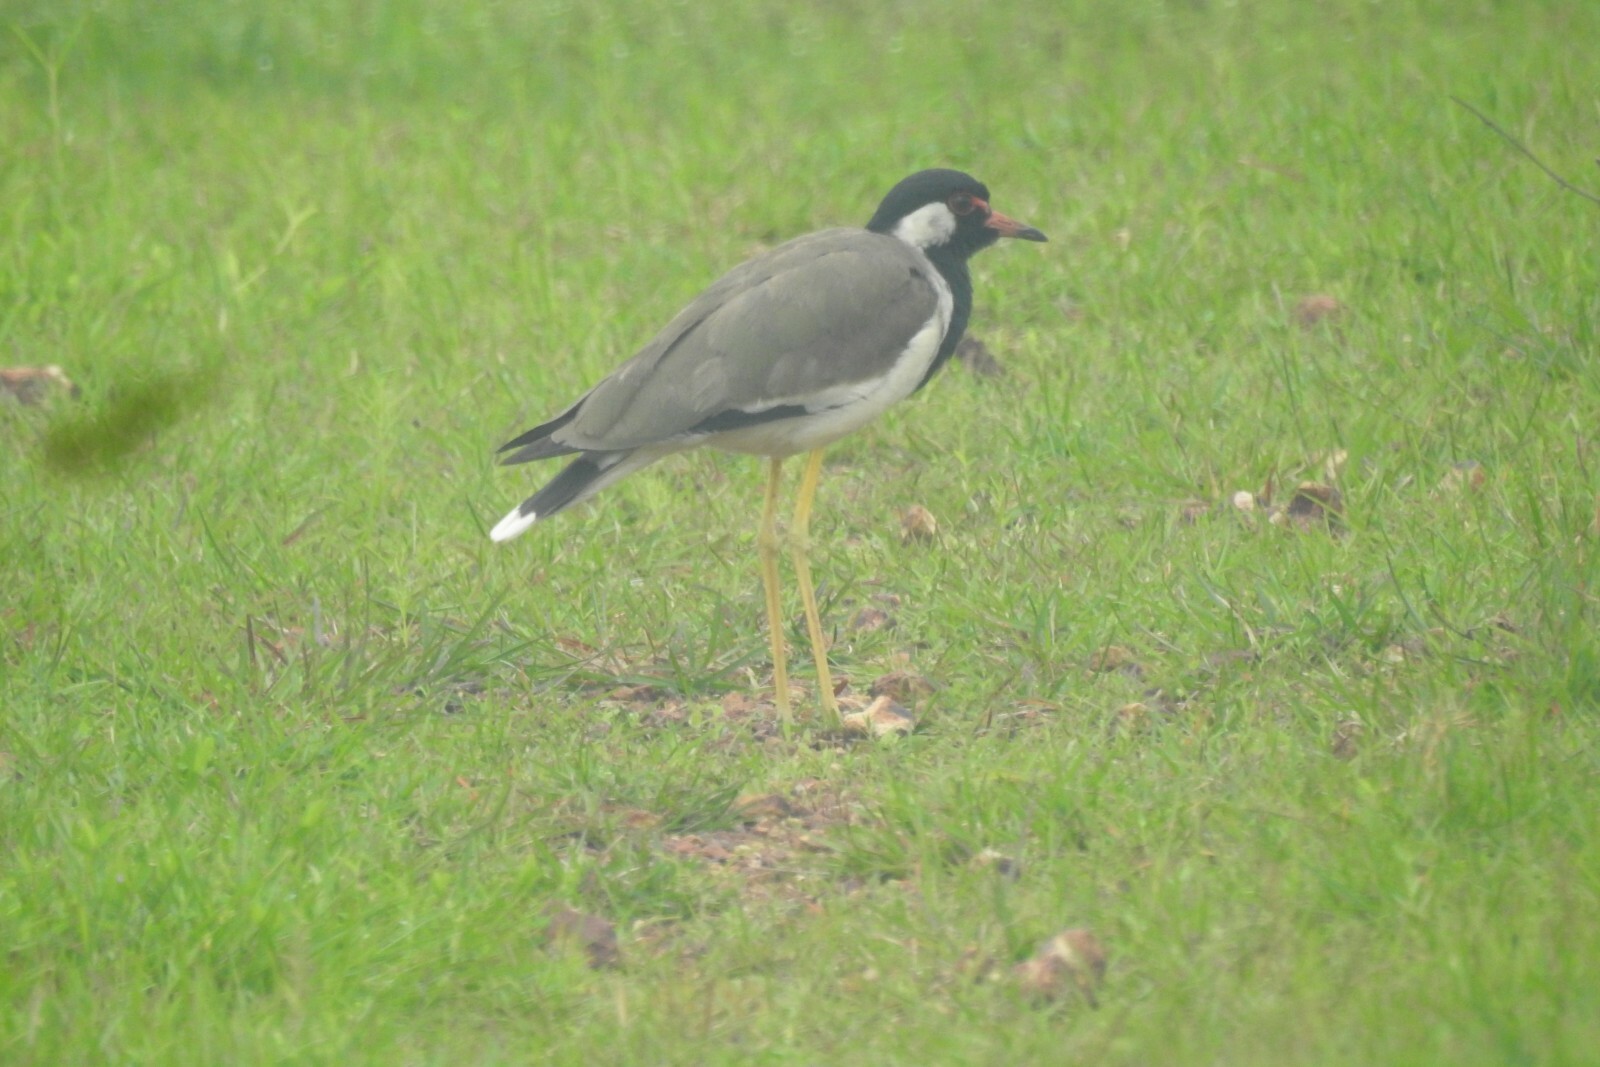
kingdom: Animalia
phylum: Chordata
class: Aves
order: Charadriiformes
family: Charadriidae
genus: Vanellus
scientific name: Vanellus indicus
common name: Red-wattled lapwing
